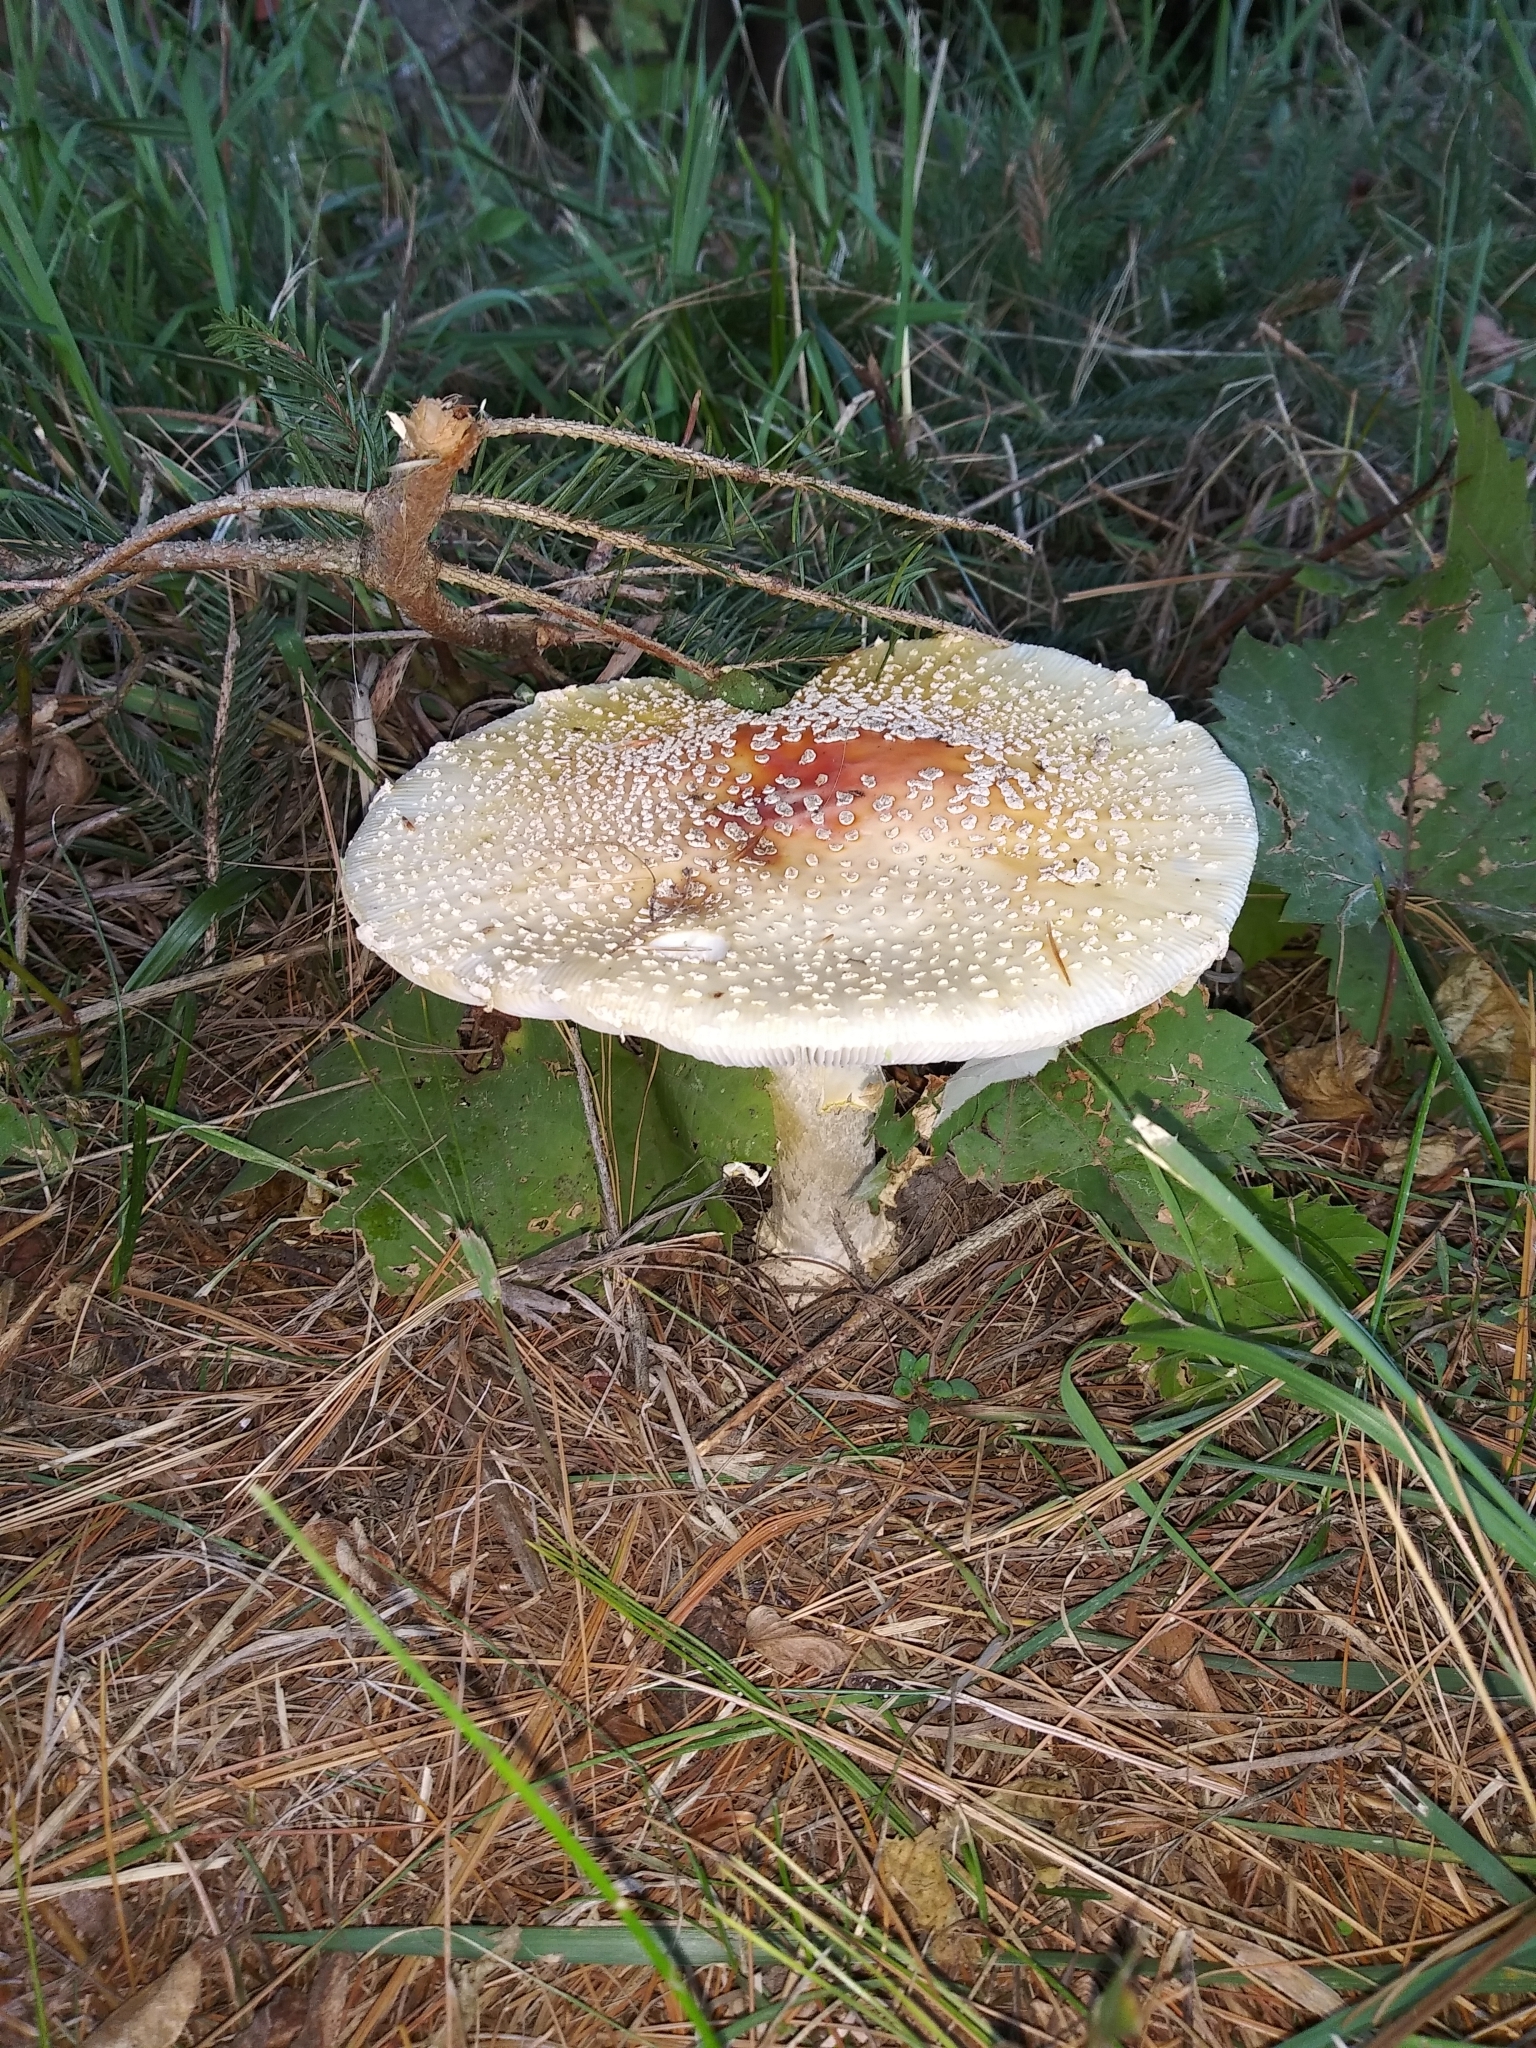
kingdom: Fungi
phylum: Basidiomycota
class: Agaricomycetes
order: Agaricales
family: Amanitaceae
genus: Amanita
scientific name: Amanita
